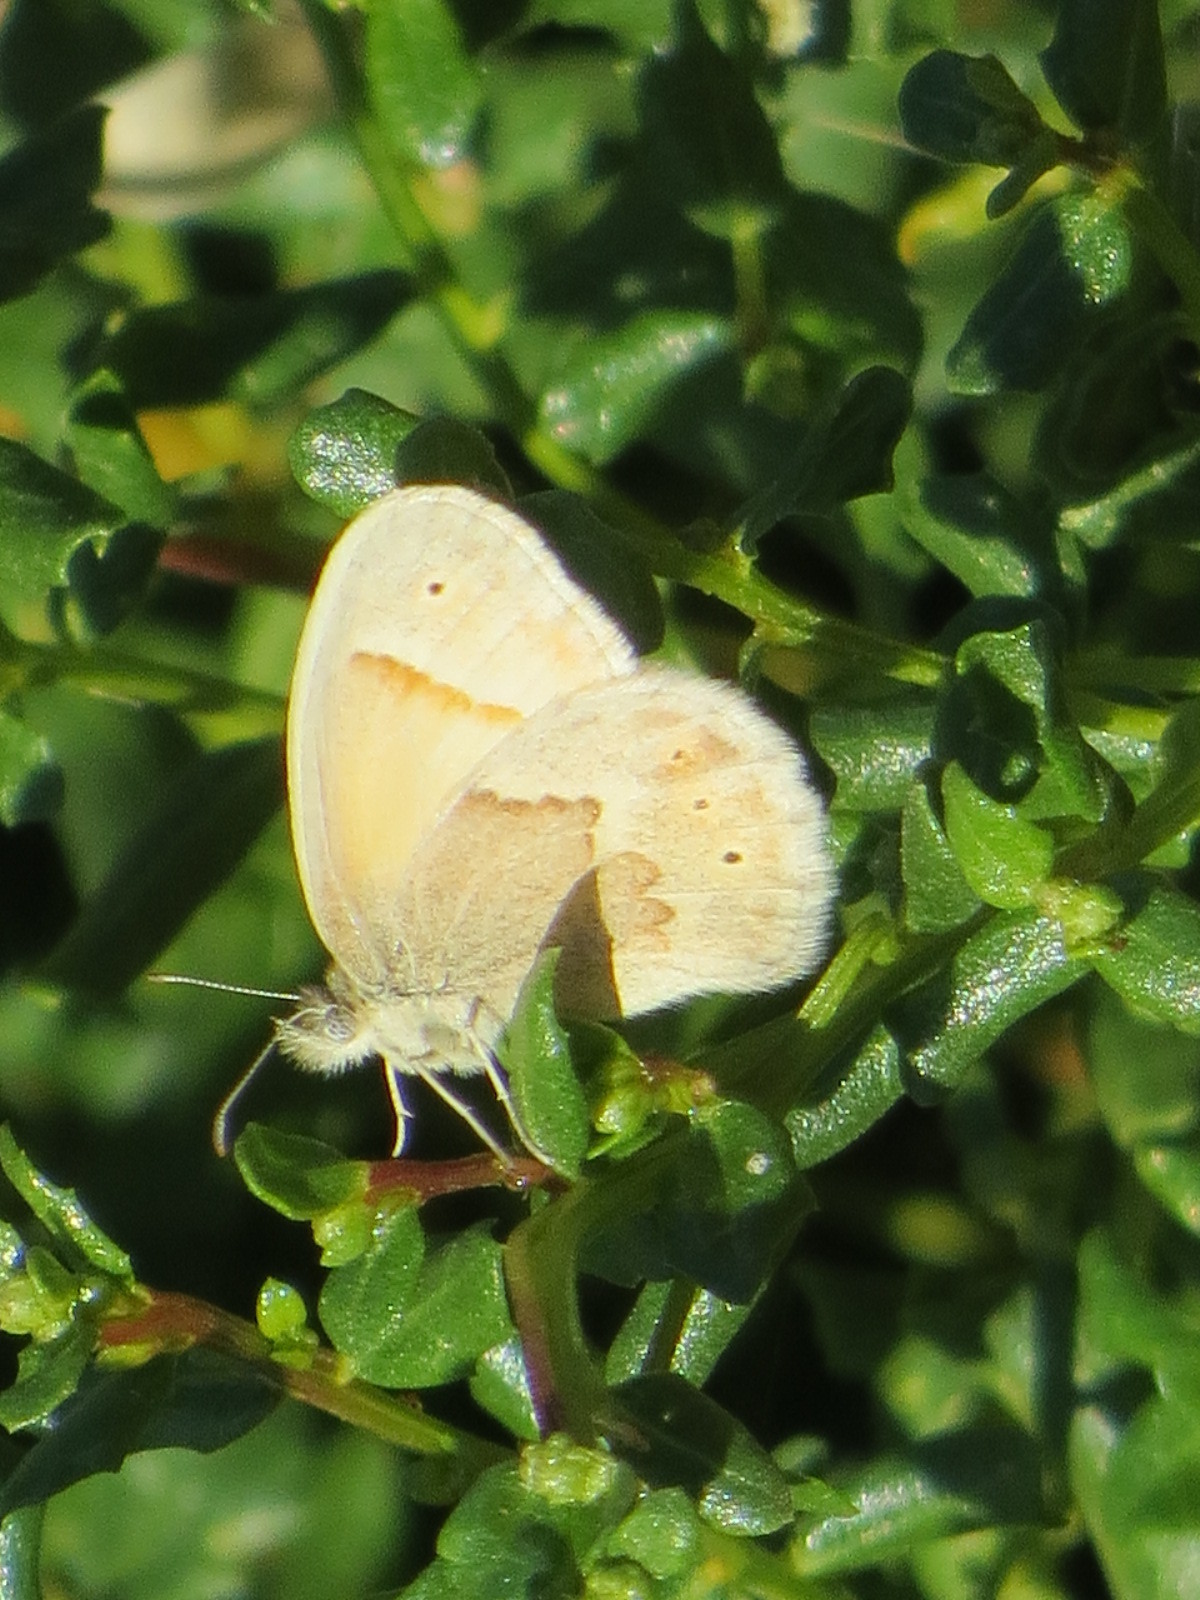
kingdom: Animalia
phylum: Arthropoda
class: Insecta
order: Lepidoptera
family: Nymphalidae
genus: Coenonympha
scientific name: Coenonympha california
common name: Common ringlet
